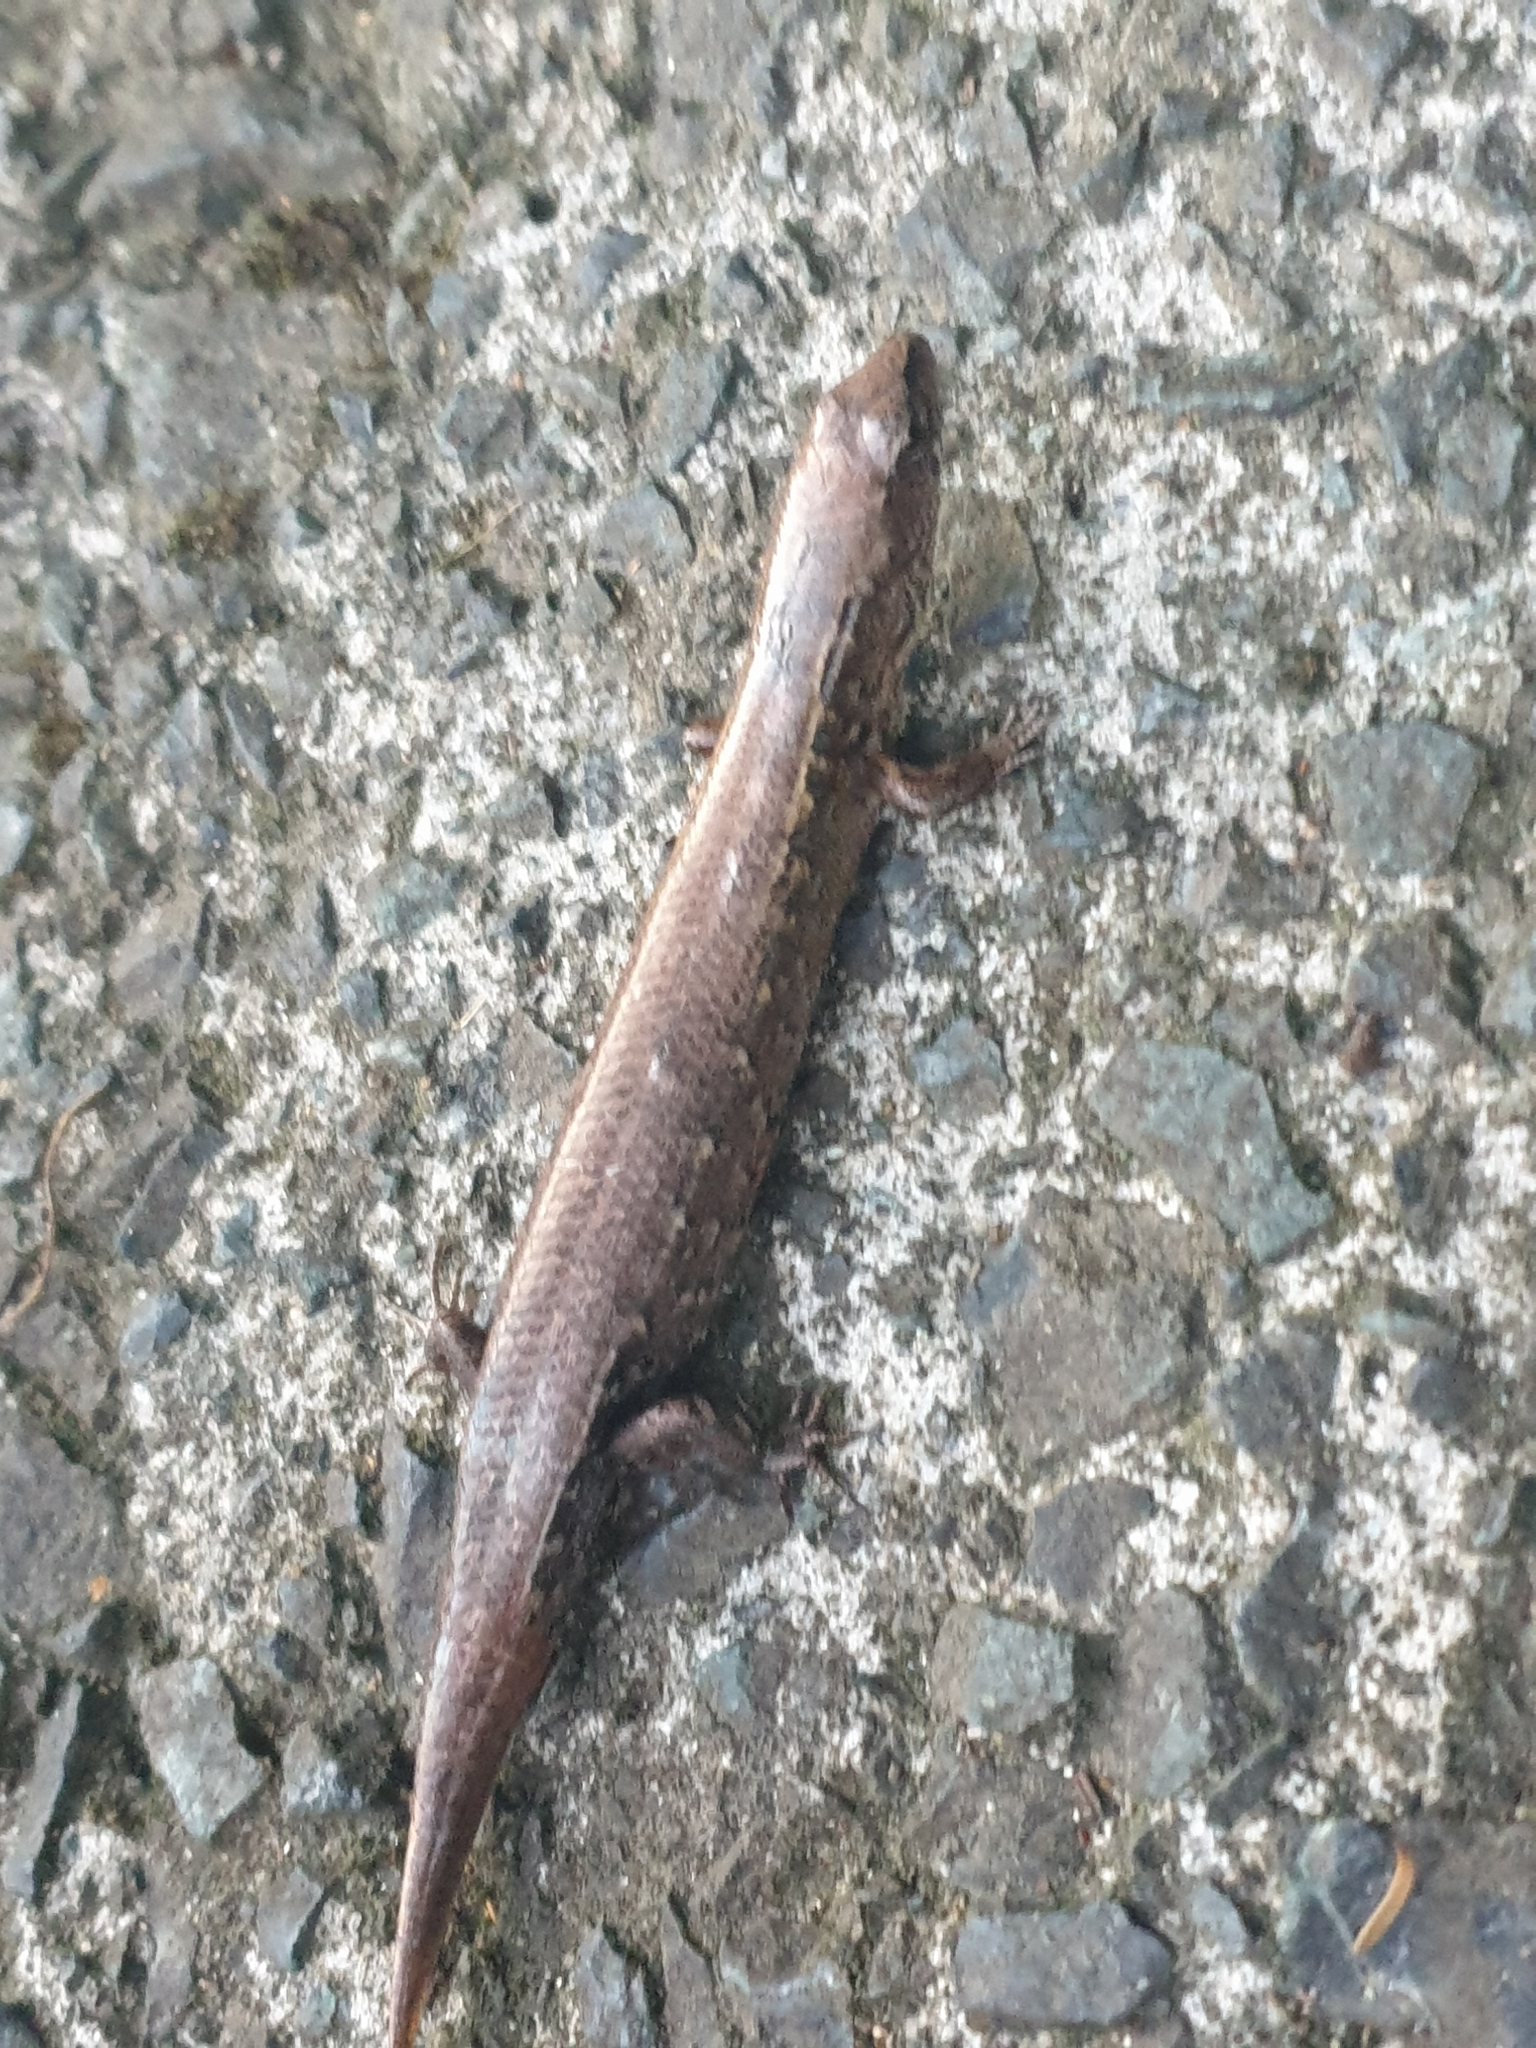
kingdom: Animalia
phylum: Chordata
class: Squamata
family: Scincidae
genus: Oligosoma
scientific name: Oligosoma ornatum
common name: Gray's ornate skink
